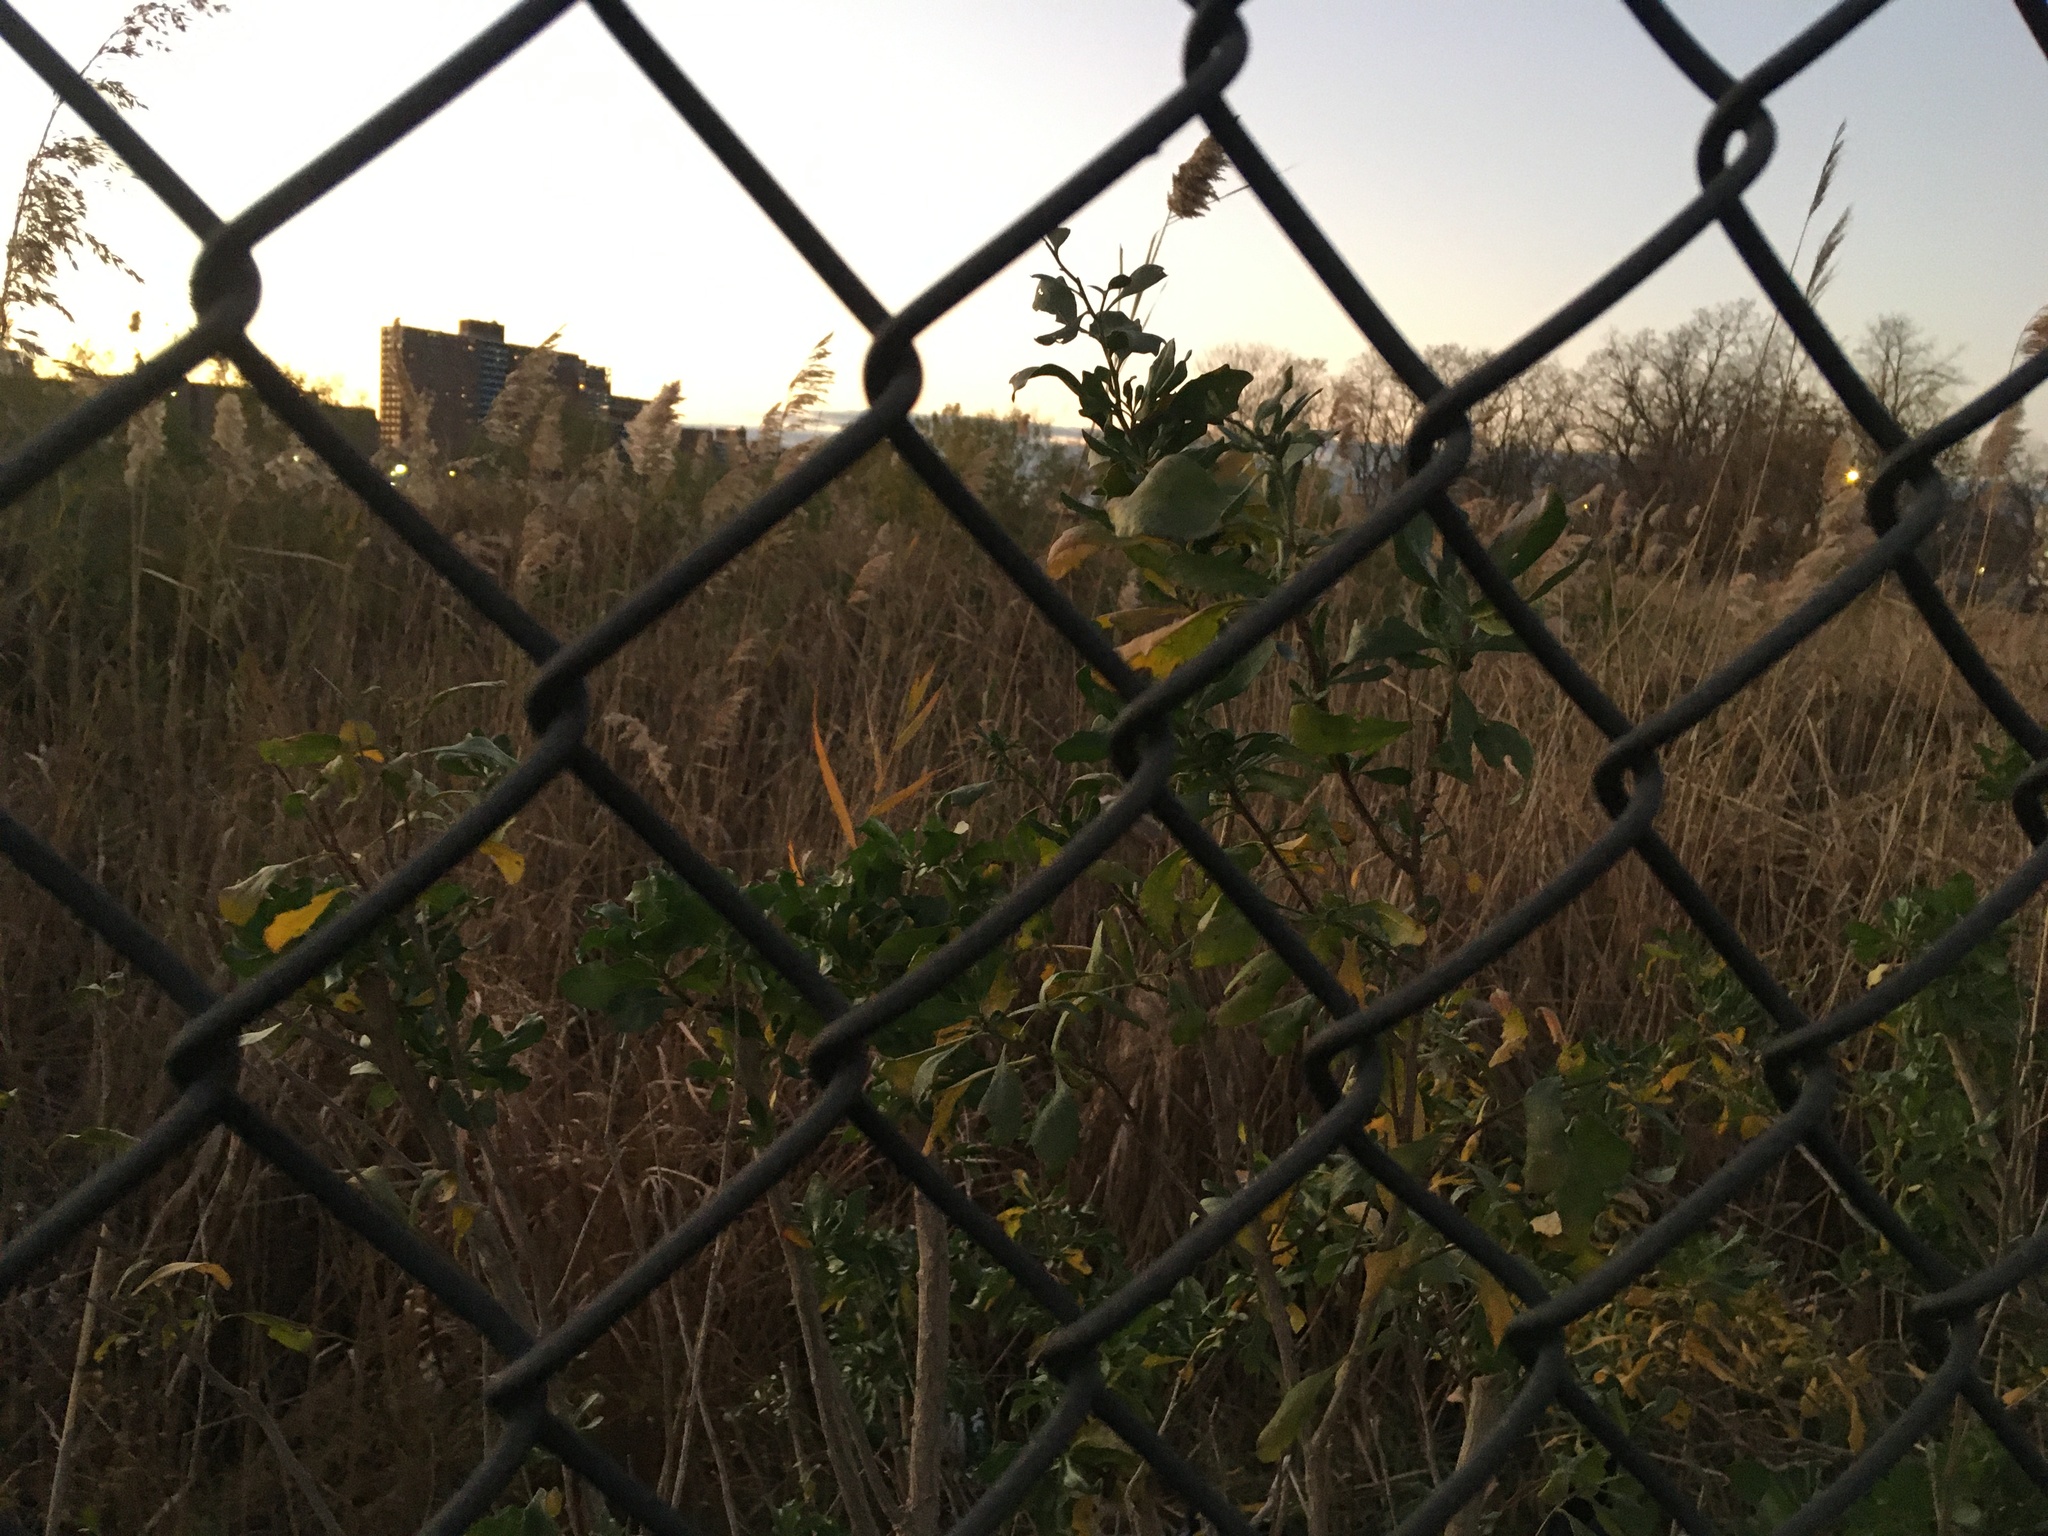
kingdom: Plantae
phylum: Tracheophyta
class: Magnoliopsida
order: Asterales
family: Asteraceae
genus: Baccharis
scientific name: Baccharis halimifolia
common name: Eastern baccharis
